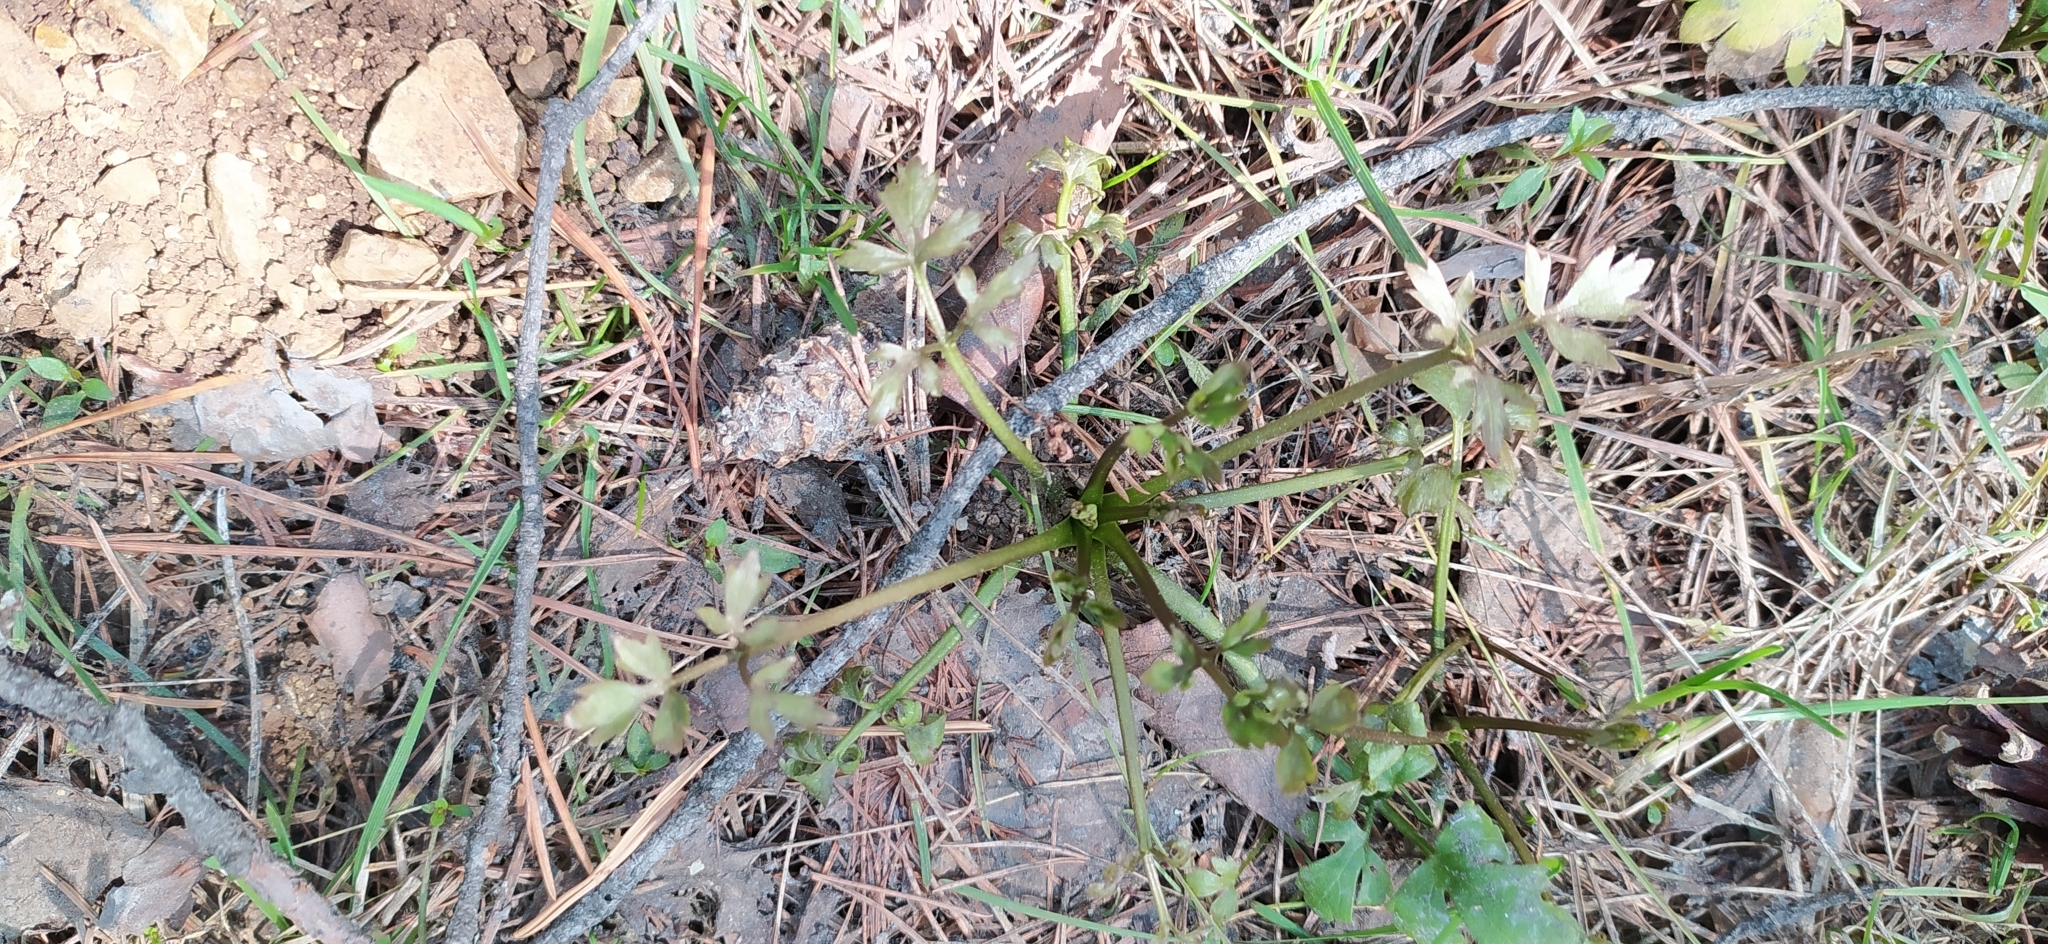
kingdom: Plantae
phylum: Tracheophyta
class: Magnoliopsida
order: Ranunculales
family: Ranunculaceae
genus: Ranunculus
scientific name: Ranunculus repens
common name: Creeping buttercup
